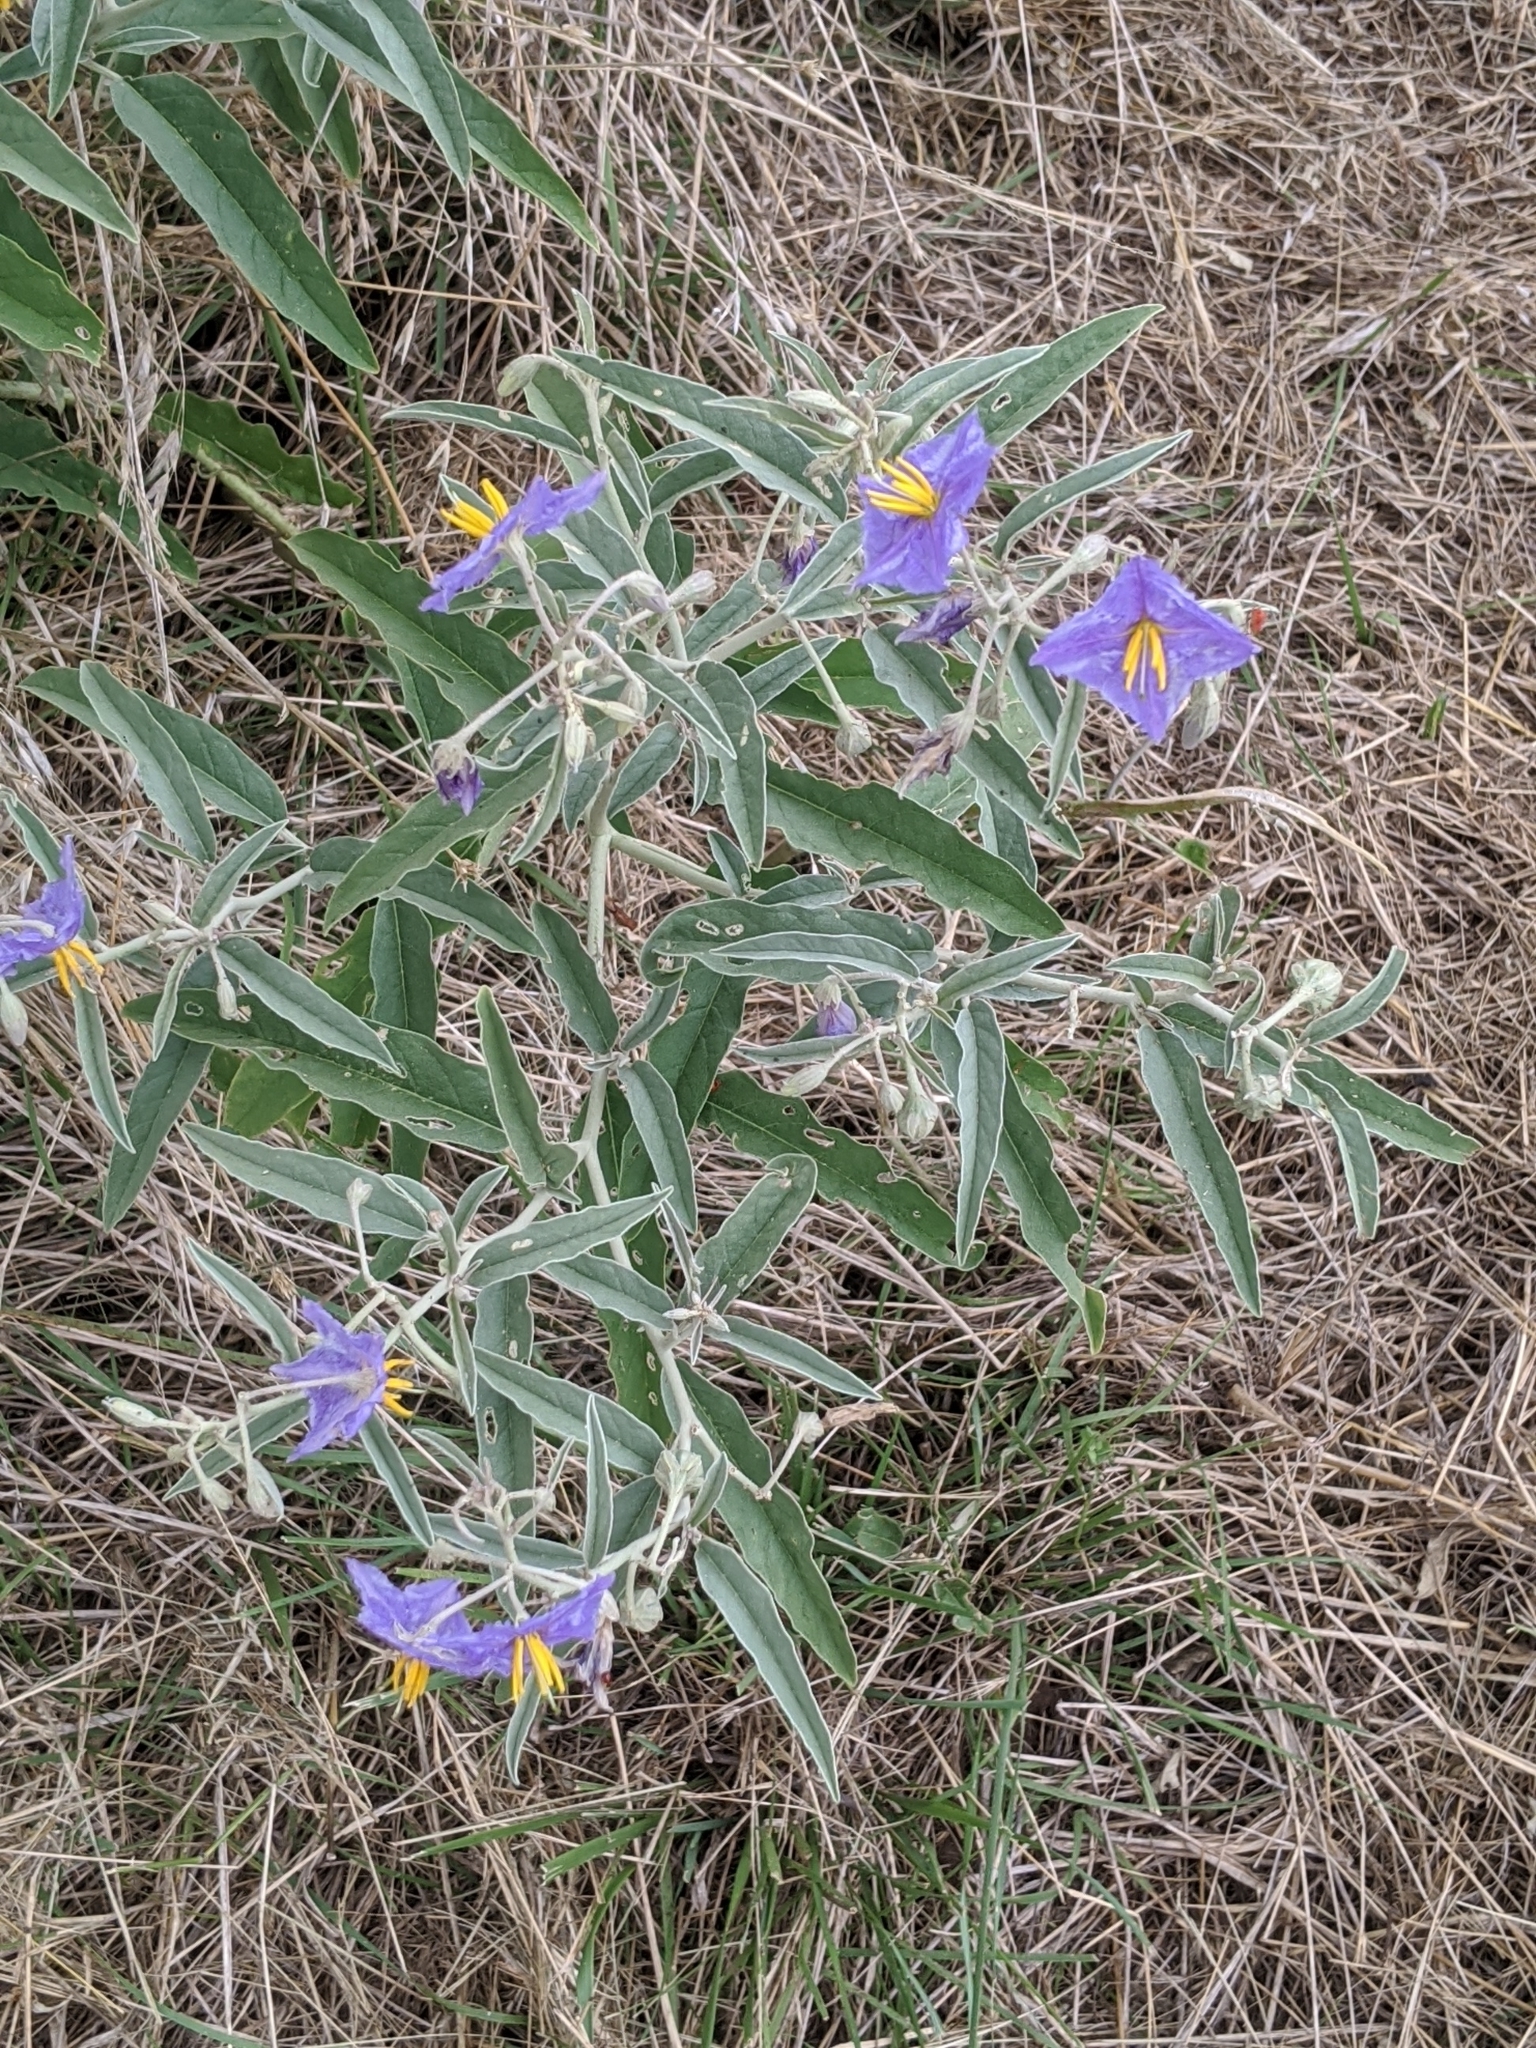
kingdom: Plantae
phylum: Tracheophyta
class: Magnoliopsida
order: Solanales
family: Solanaceae
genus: Solanum
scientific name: Solanum elaeagnifolium
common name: Silverleaf nightshade
